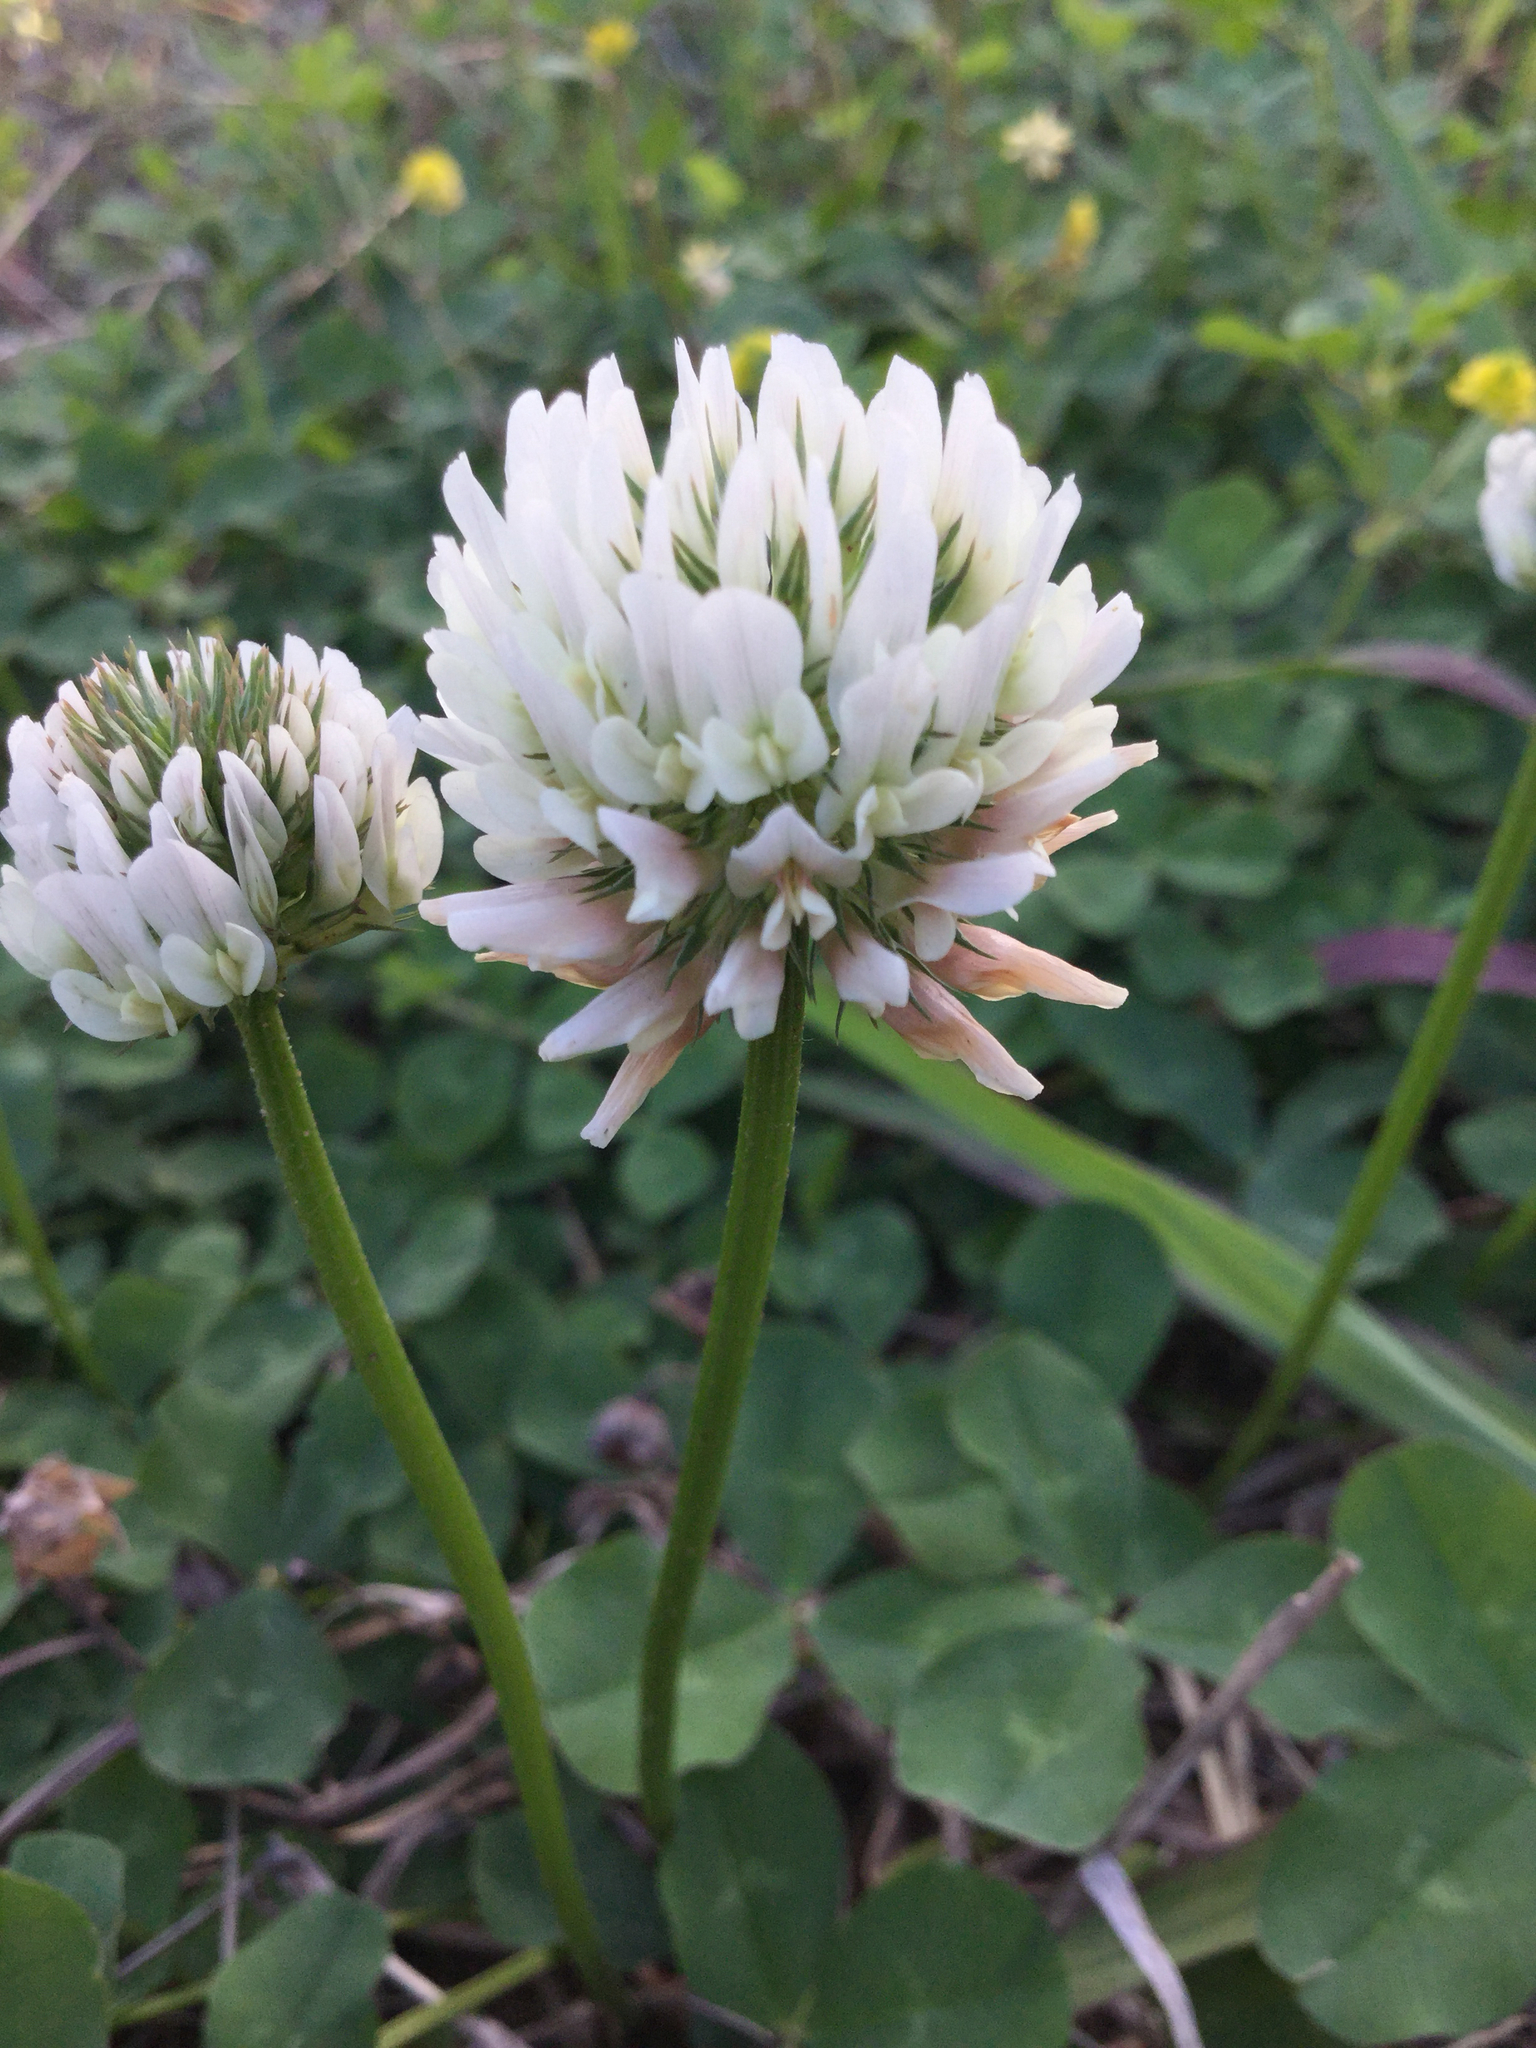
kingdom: Plantae
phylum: Tracheophyta
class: Magnoliopsida
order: Fabales
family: Fabaceae
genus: Trifolium
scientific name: Trifolium repens
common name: White clover
